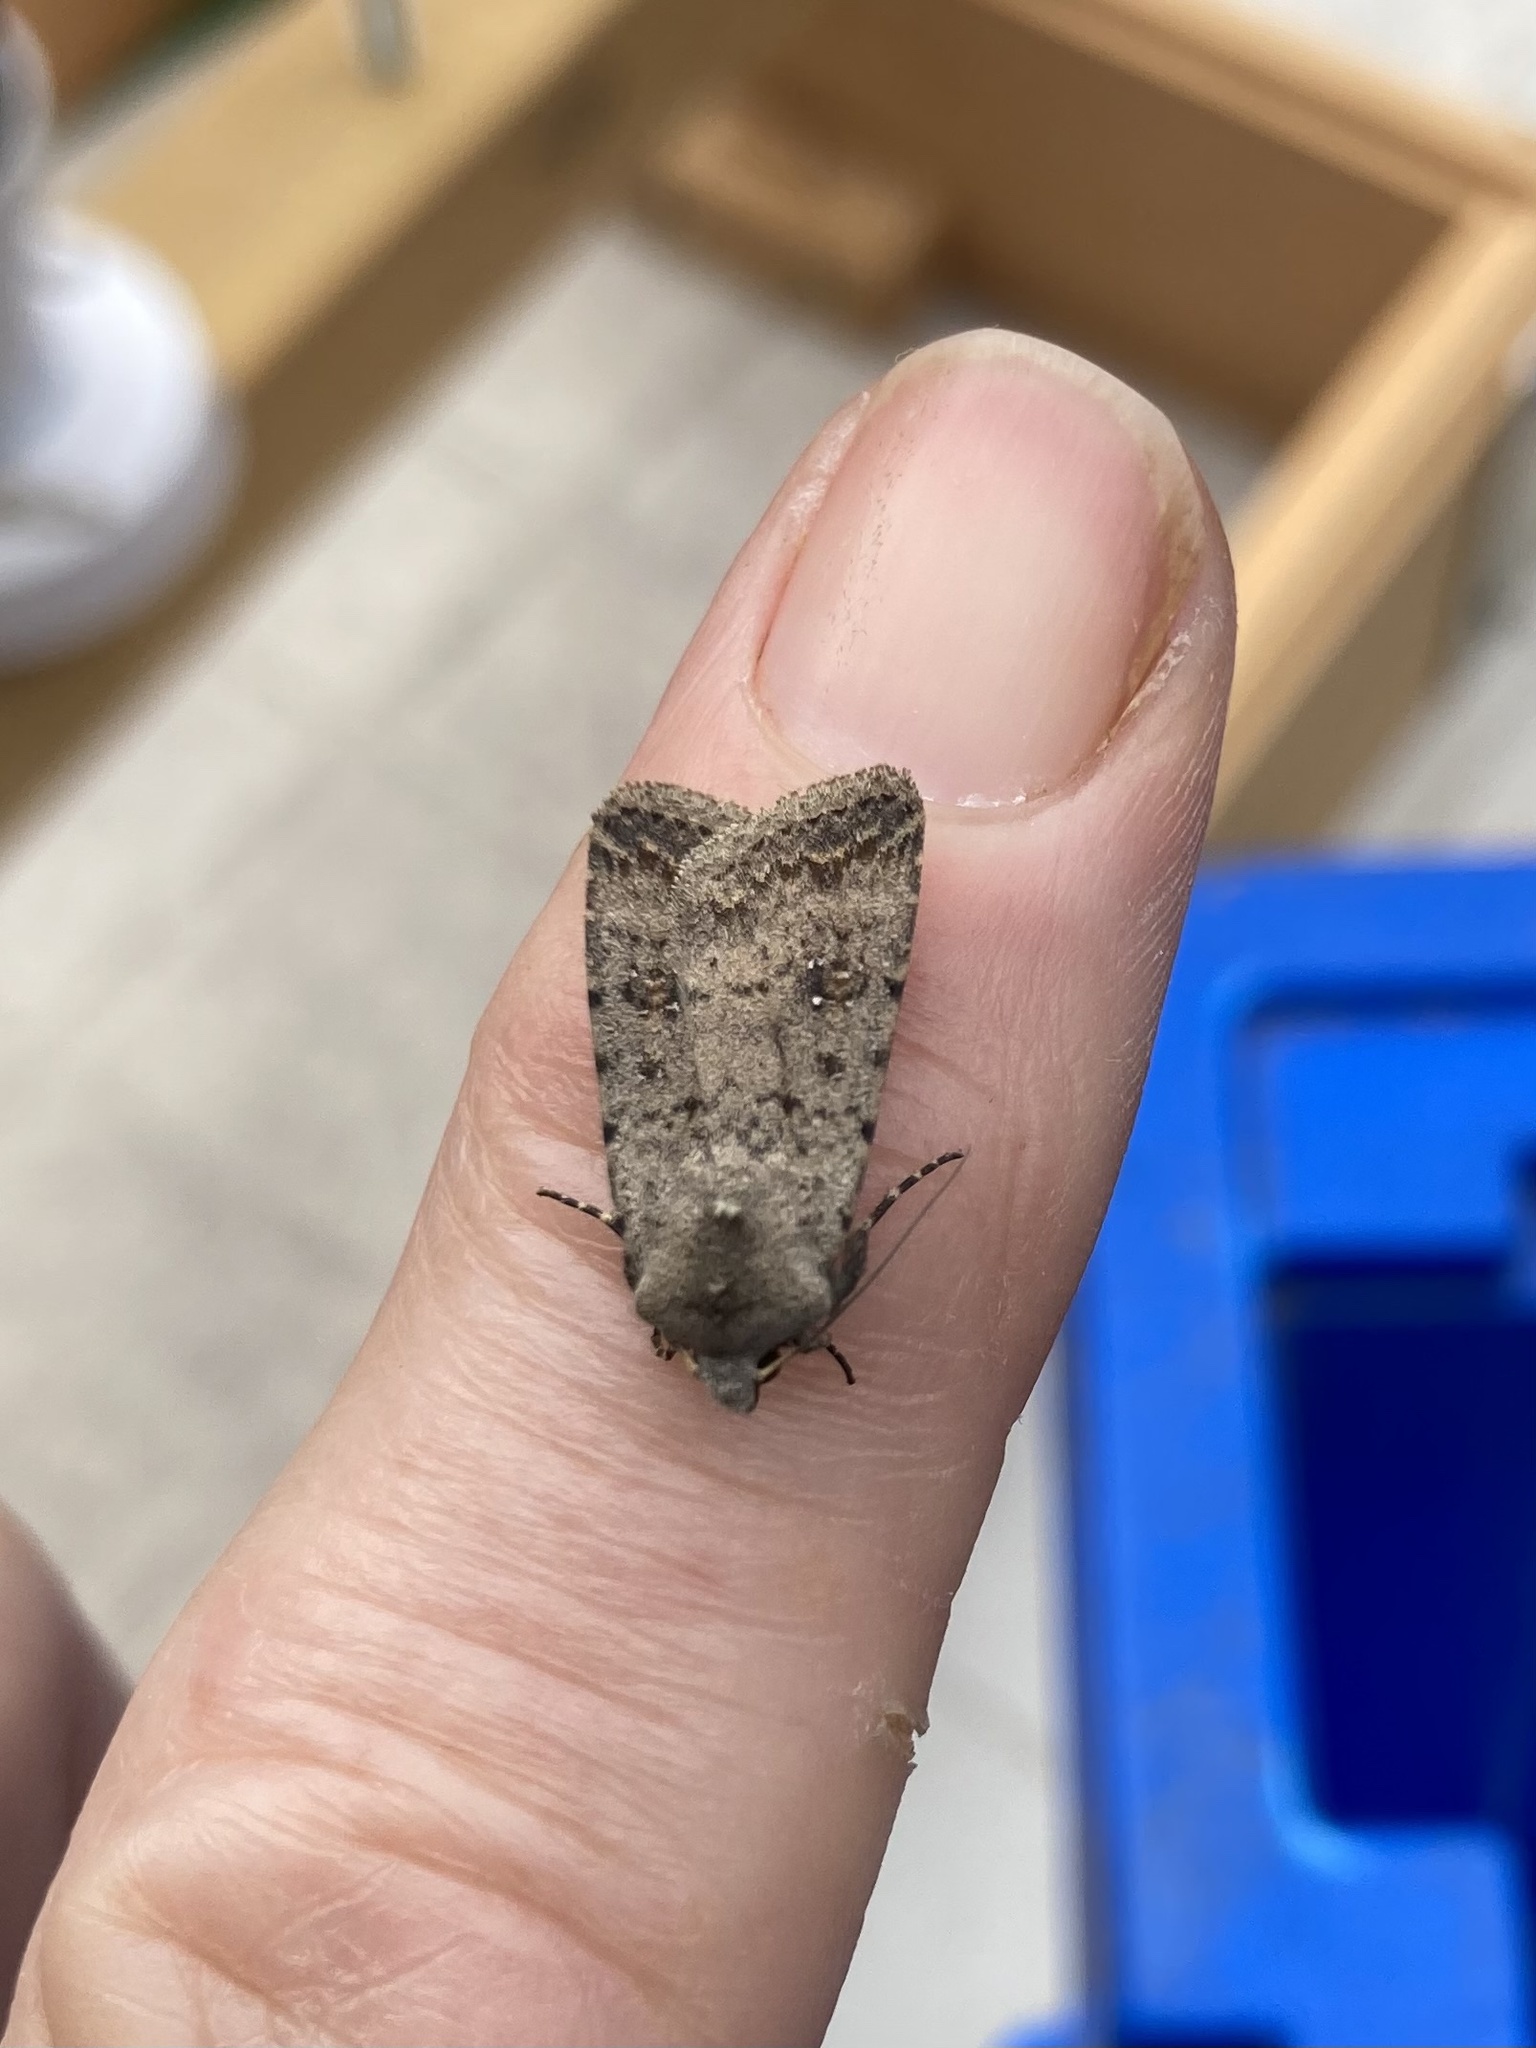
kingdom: Animalia
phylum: Arthropoda
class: Insecta
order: Lepidoptera
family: Noctuidae
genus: Caradrina
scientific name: Caradrina clavipalpis
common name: Pale mottled willow
